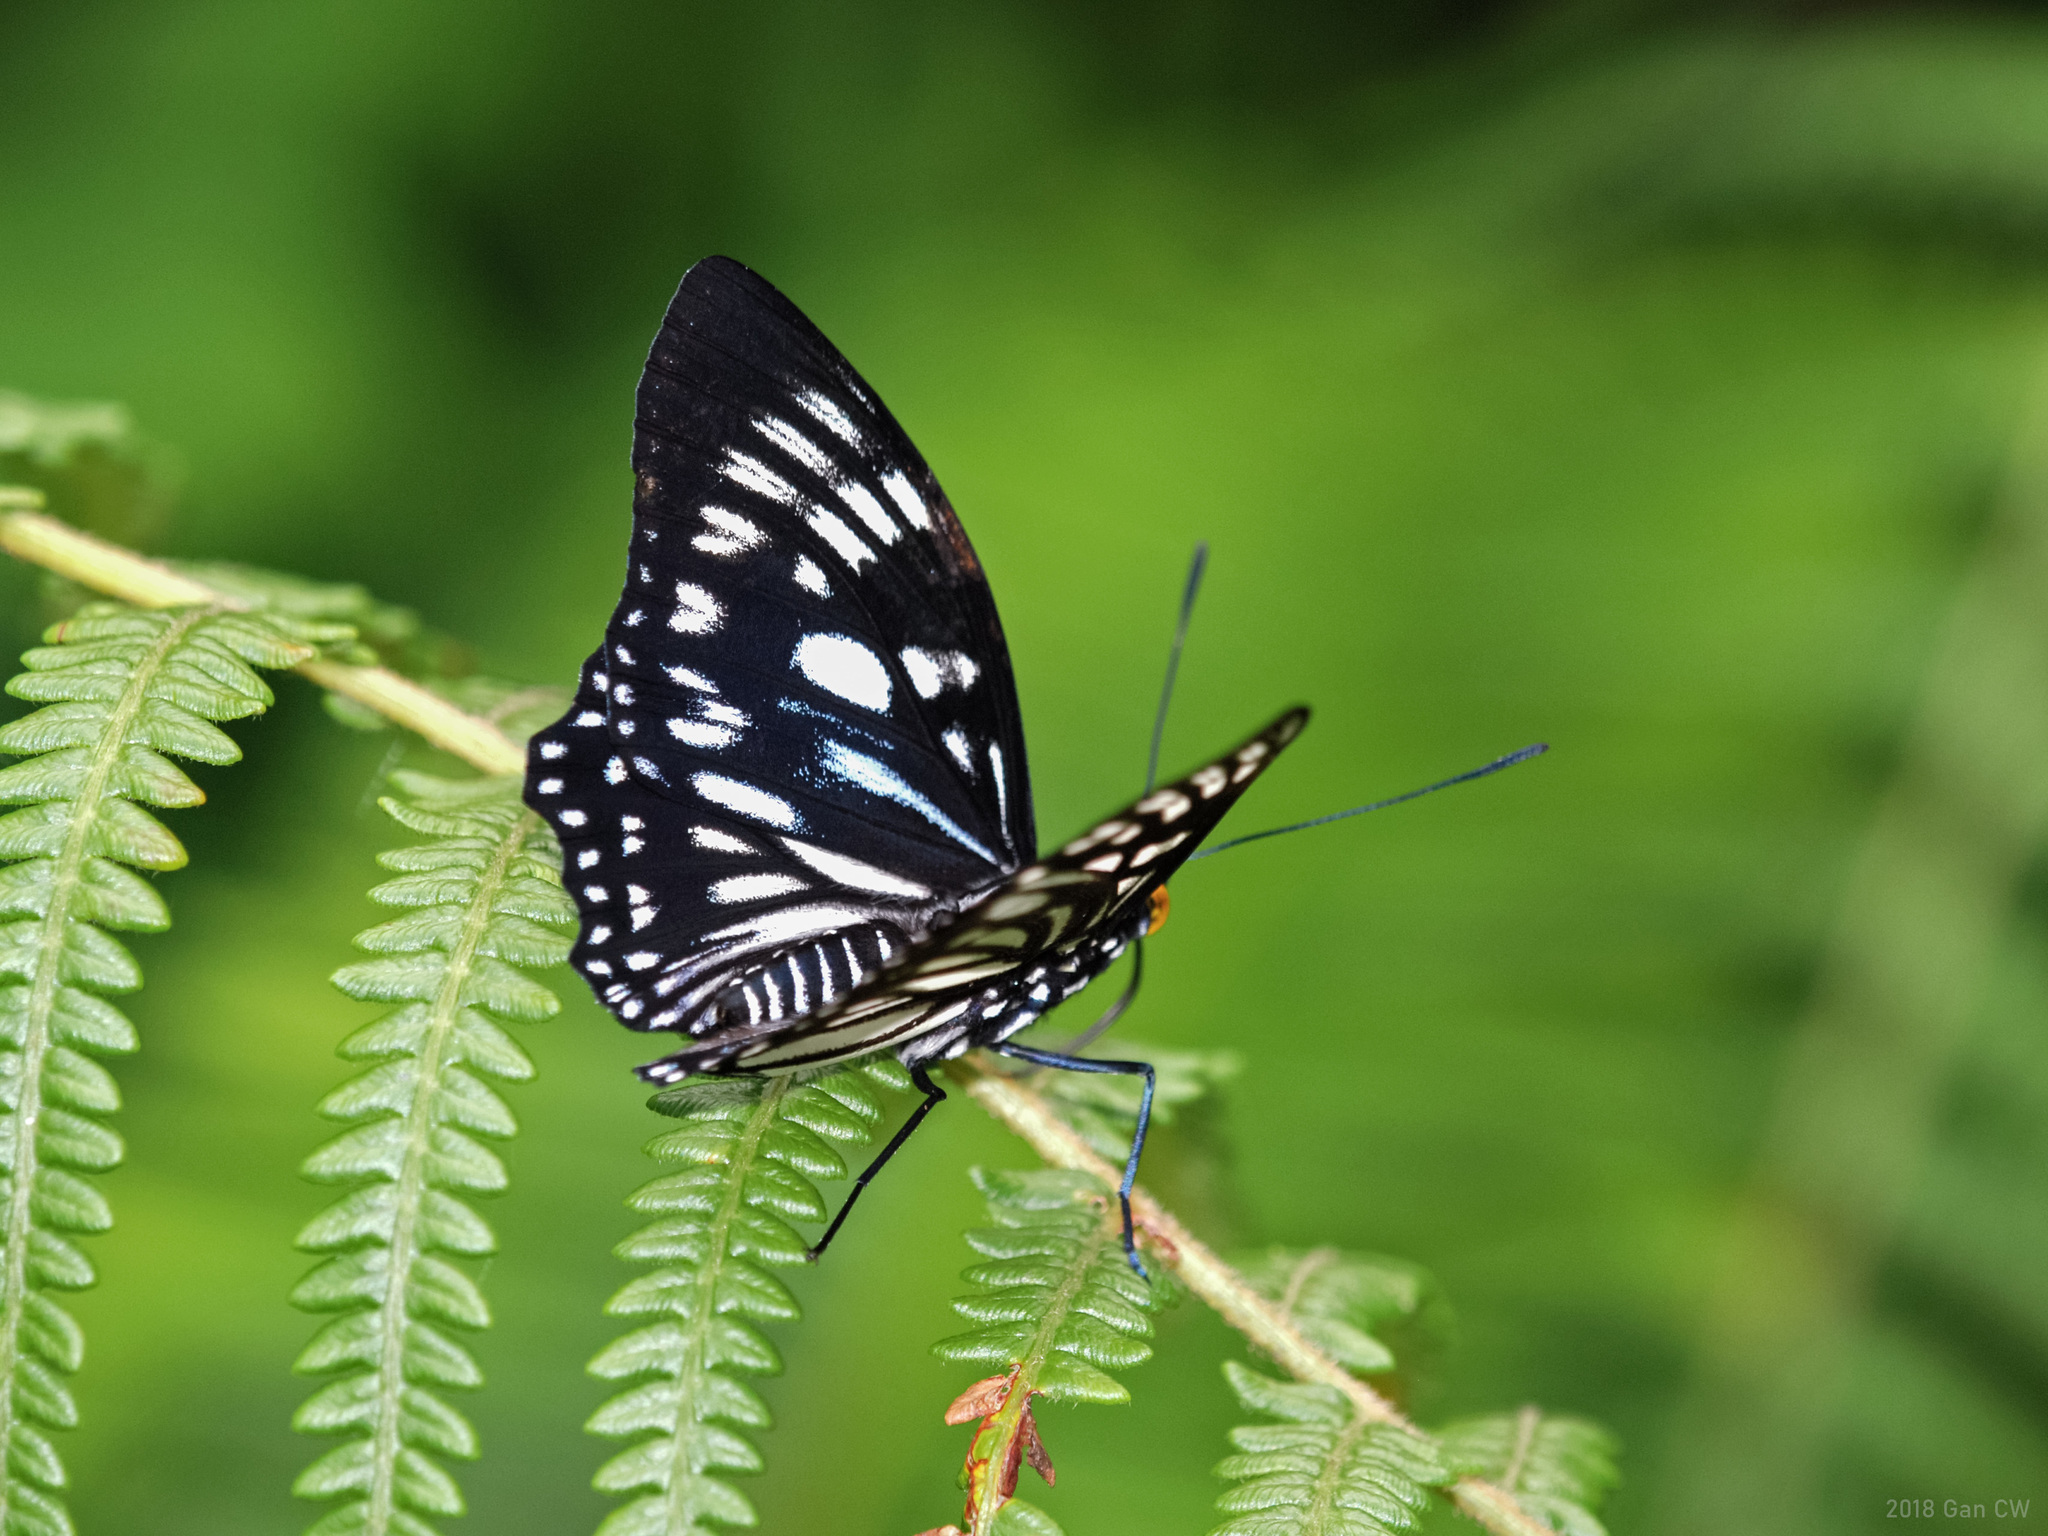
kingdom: Animalia
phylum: Arthropoda
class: Insecta
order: Lepidoptera
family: Nymphalidae
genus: Euripus
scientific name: Euripus nyctelius
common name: Courtesan
